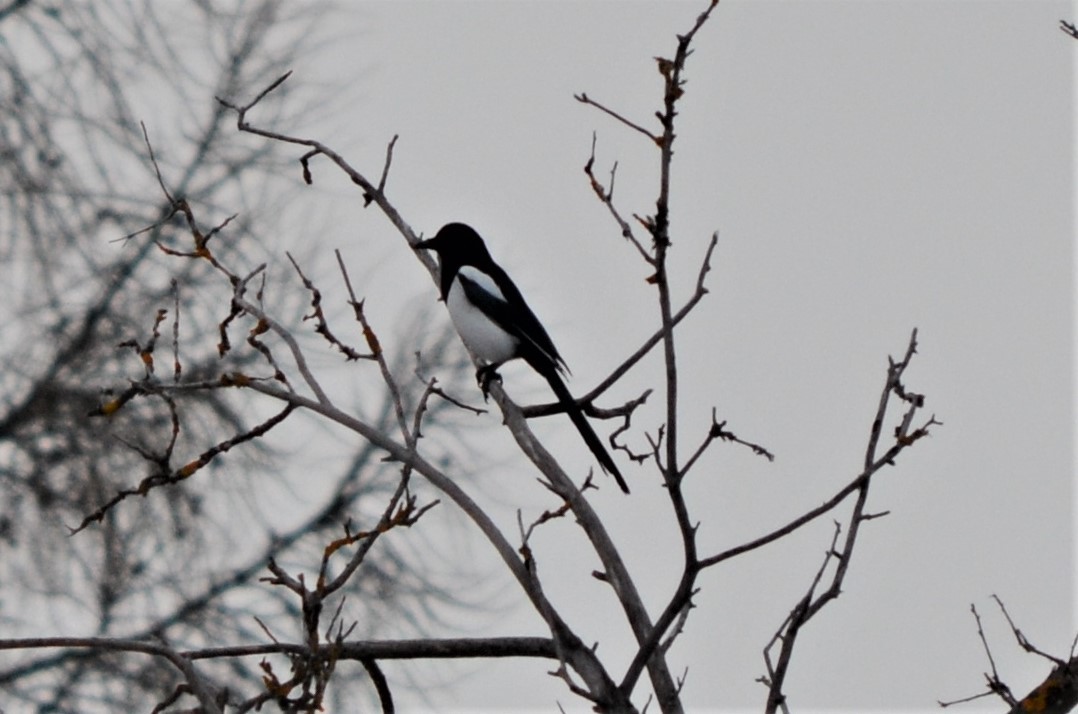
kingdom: Animalia
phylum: Chordata
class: Aves
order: Passeriformes
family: Corvidae
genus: Pica
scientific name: Pica pica
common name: Eurasian magpie
